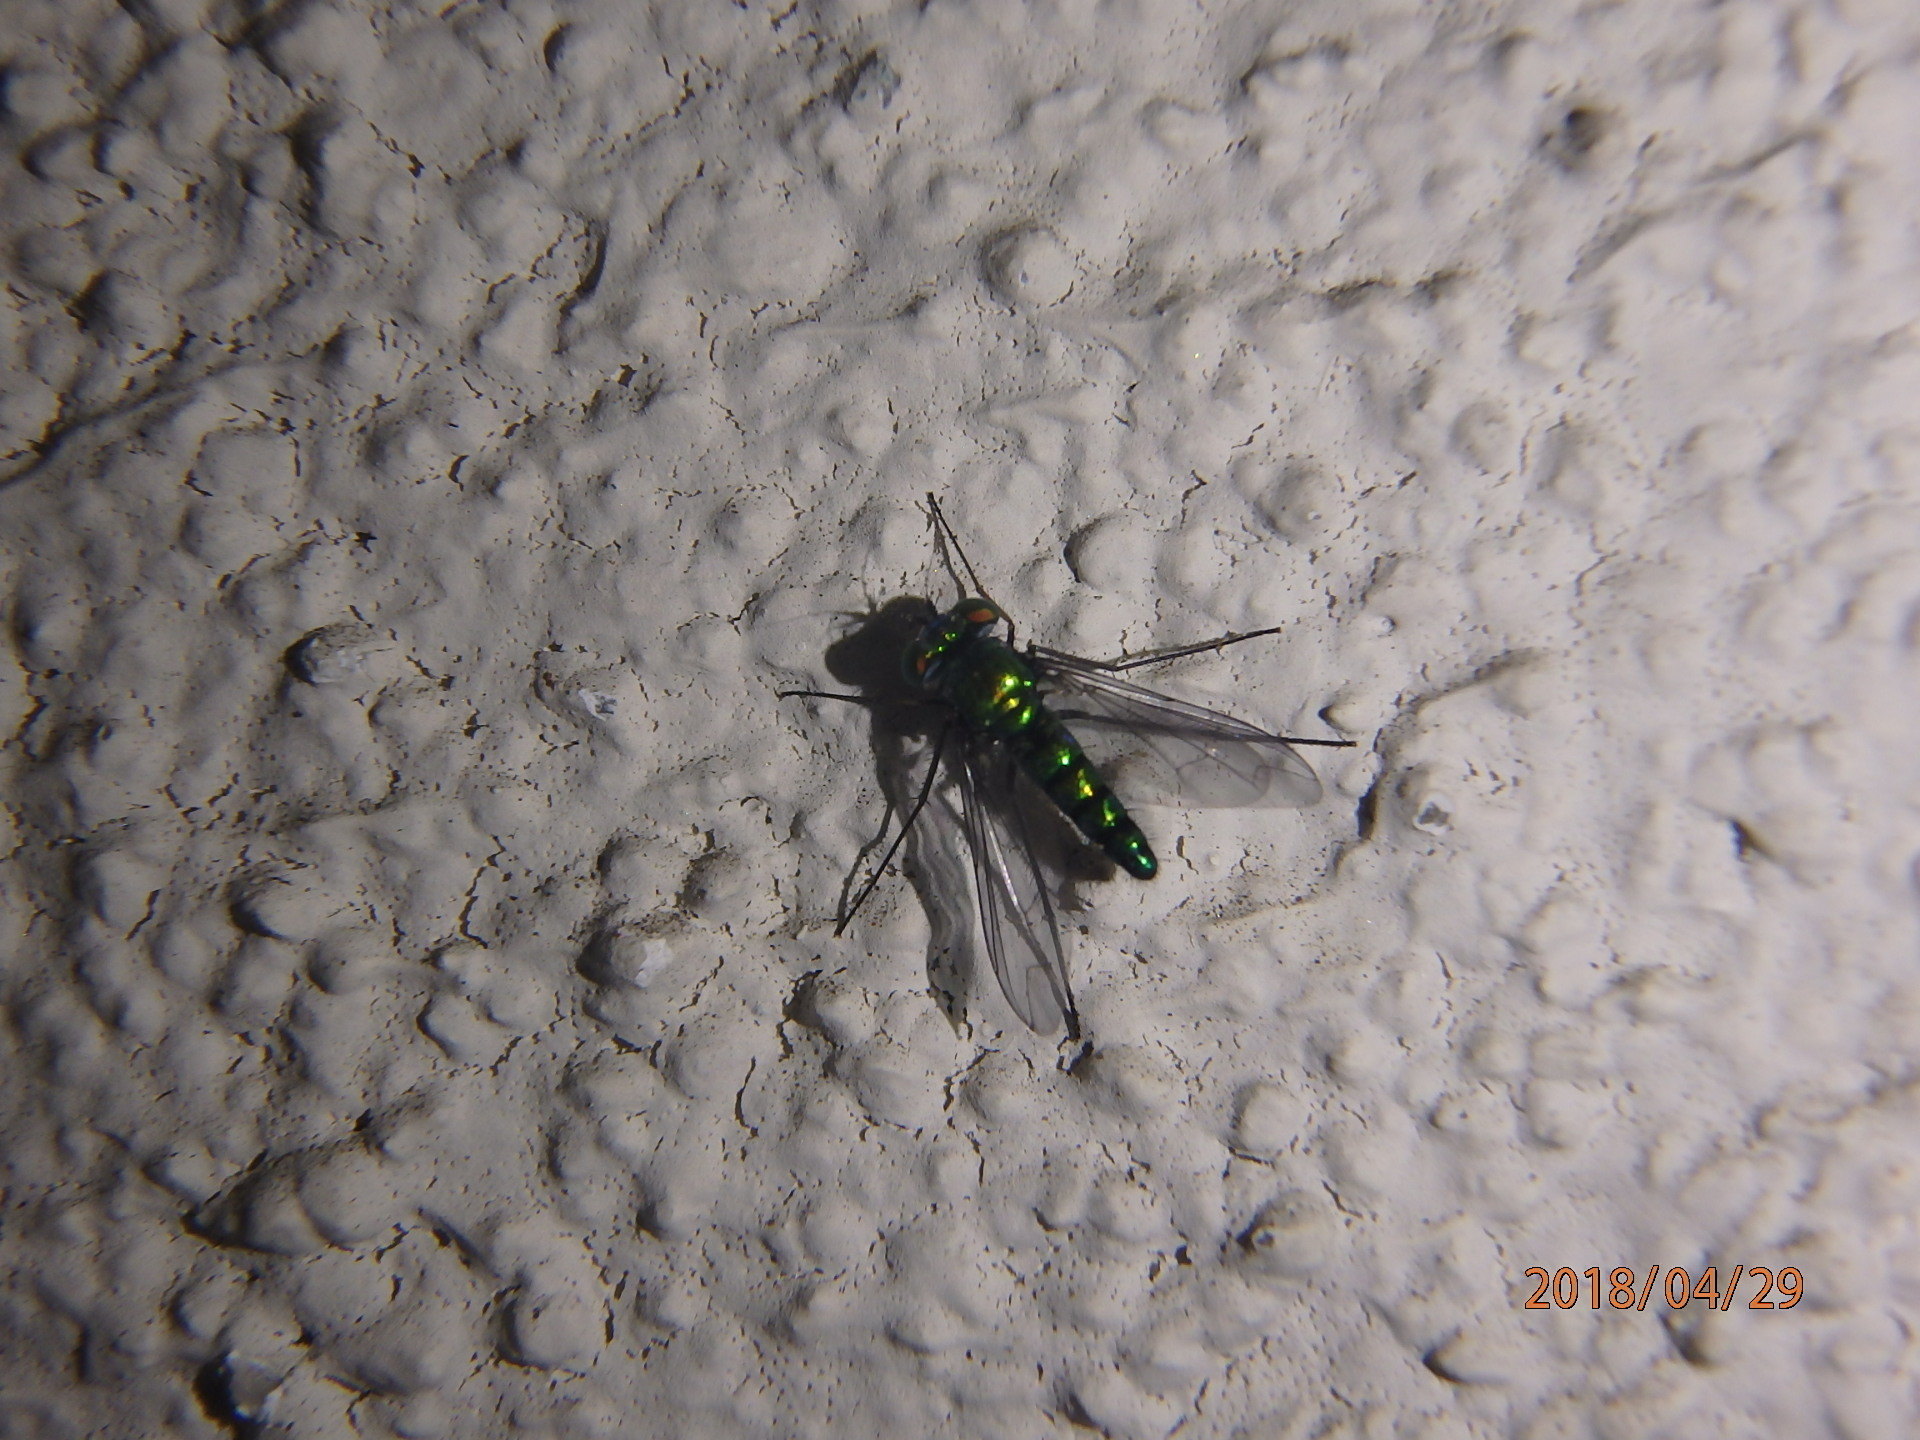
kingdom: Animalia
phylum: Arthropoda
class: Insecta
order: Diptera
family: Dolichopodidae
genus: Condylostylus
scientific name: Condylostylus longicornis
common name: Long-legged fly
